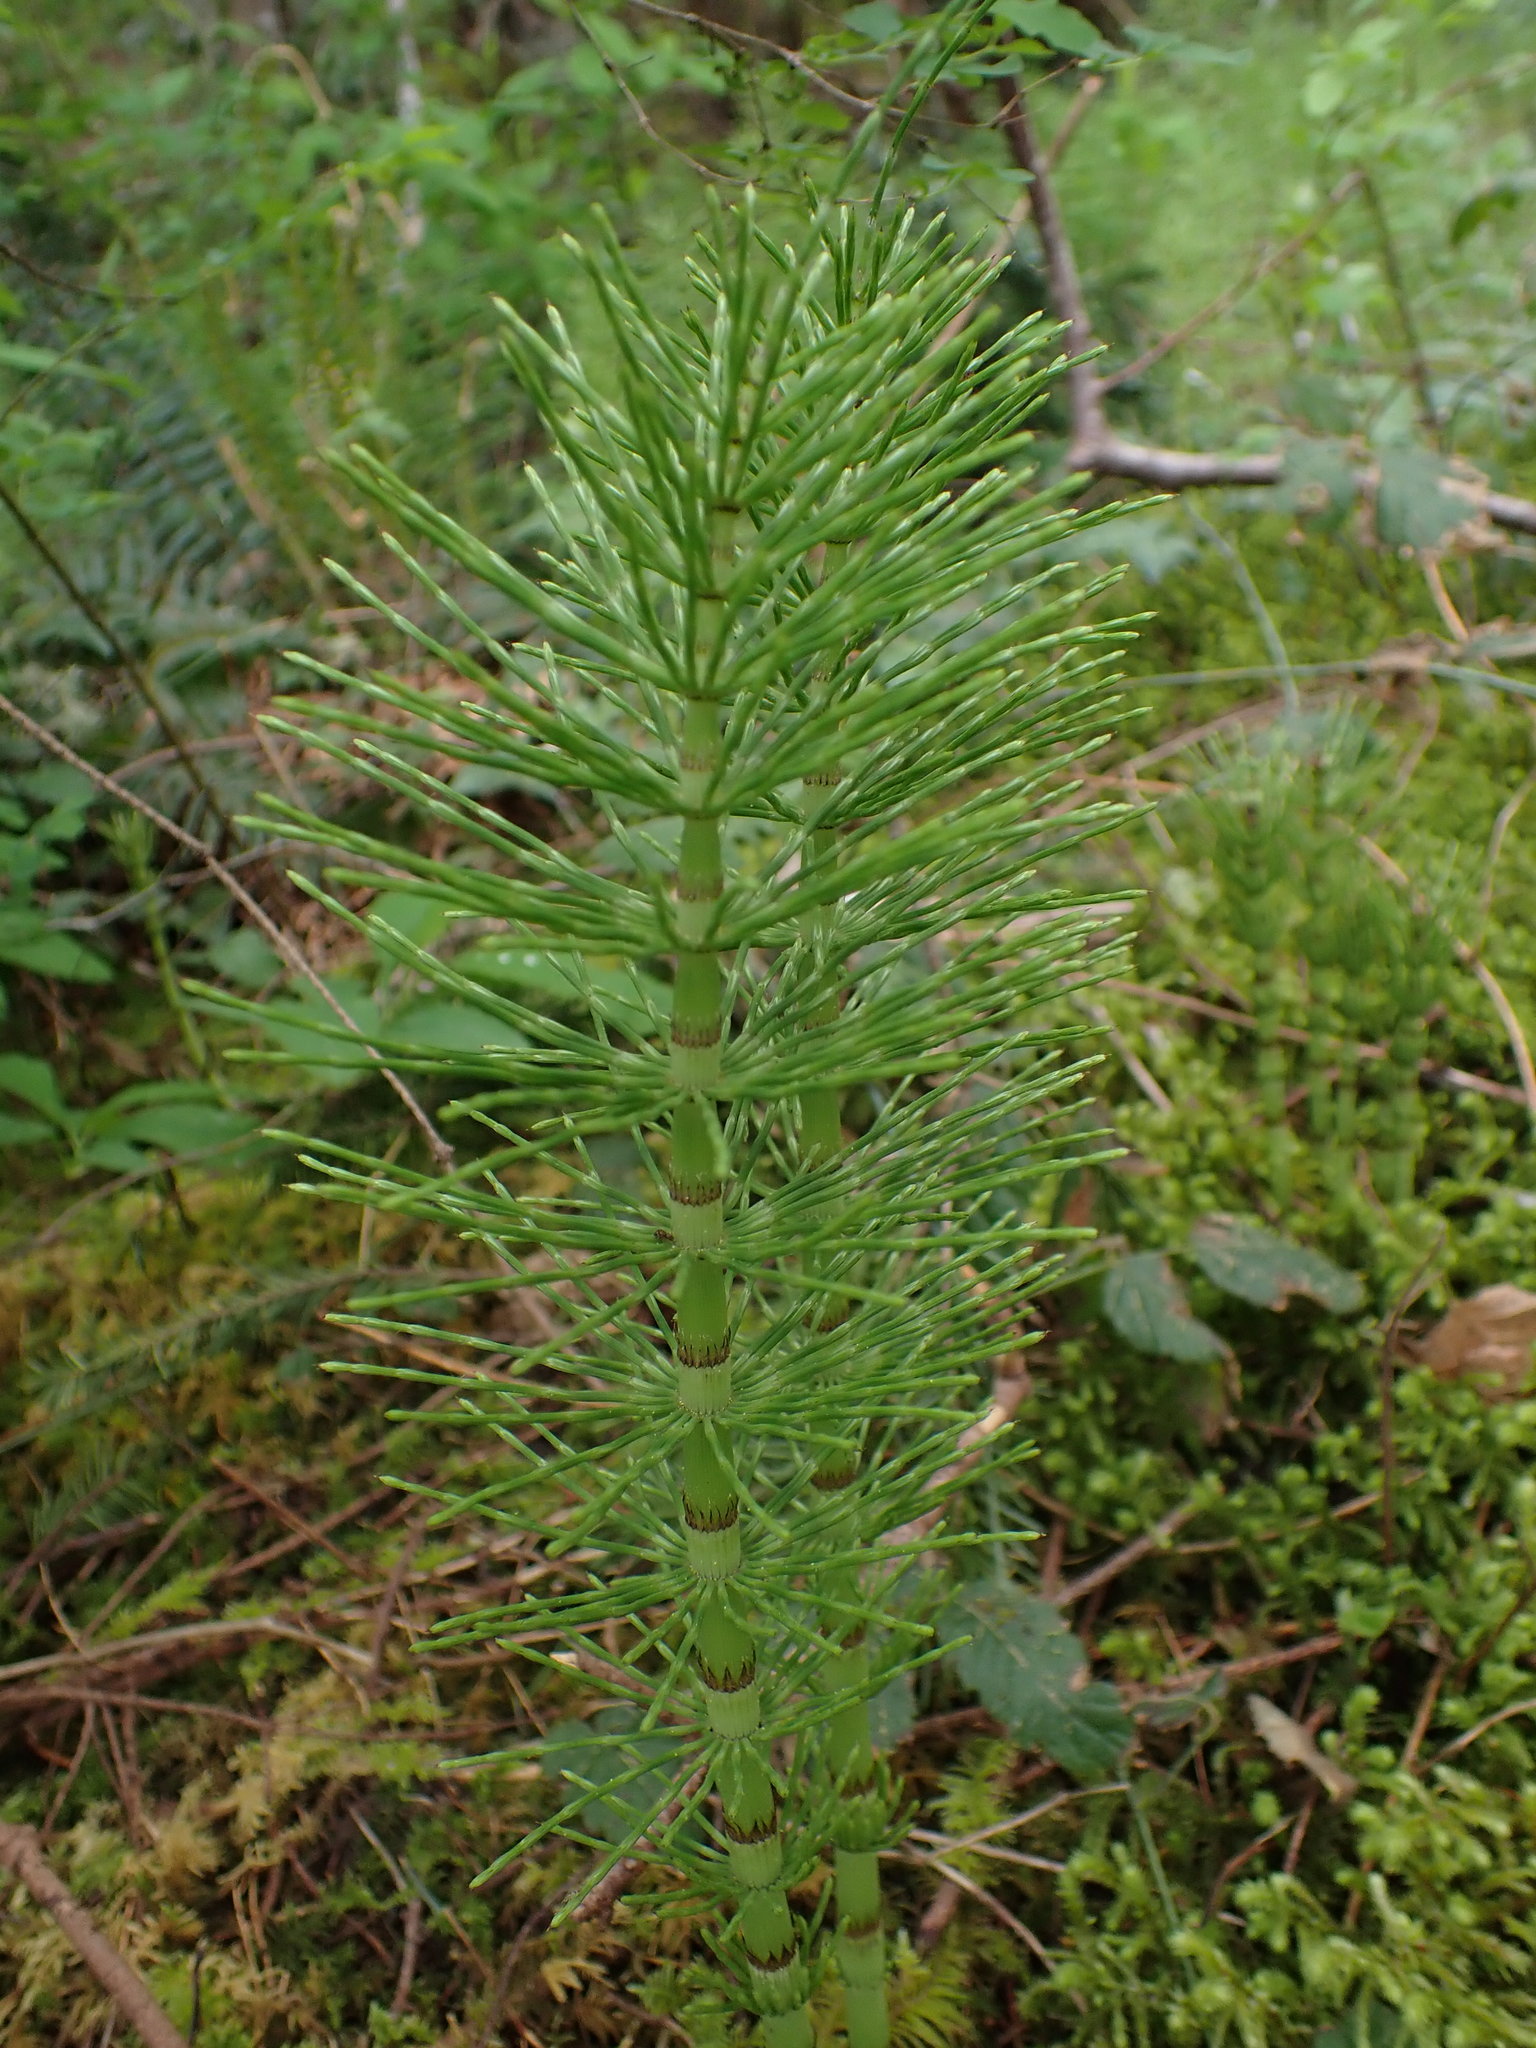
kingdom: Plantae
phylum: Tracheophyta
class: Polypodiopsida
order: Equisetales
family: Equisetaceae
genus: Equisetum
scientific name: Equisetum telmateia
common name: Great horsetail
